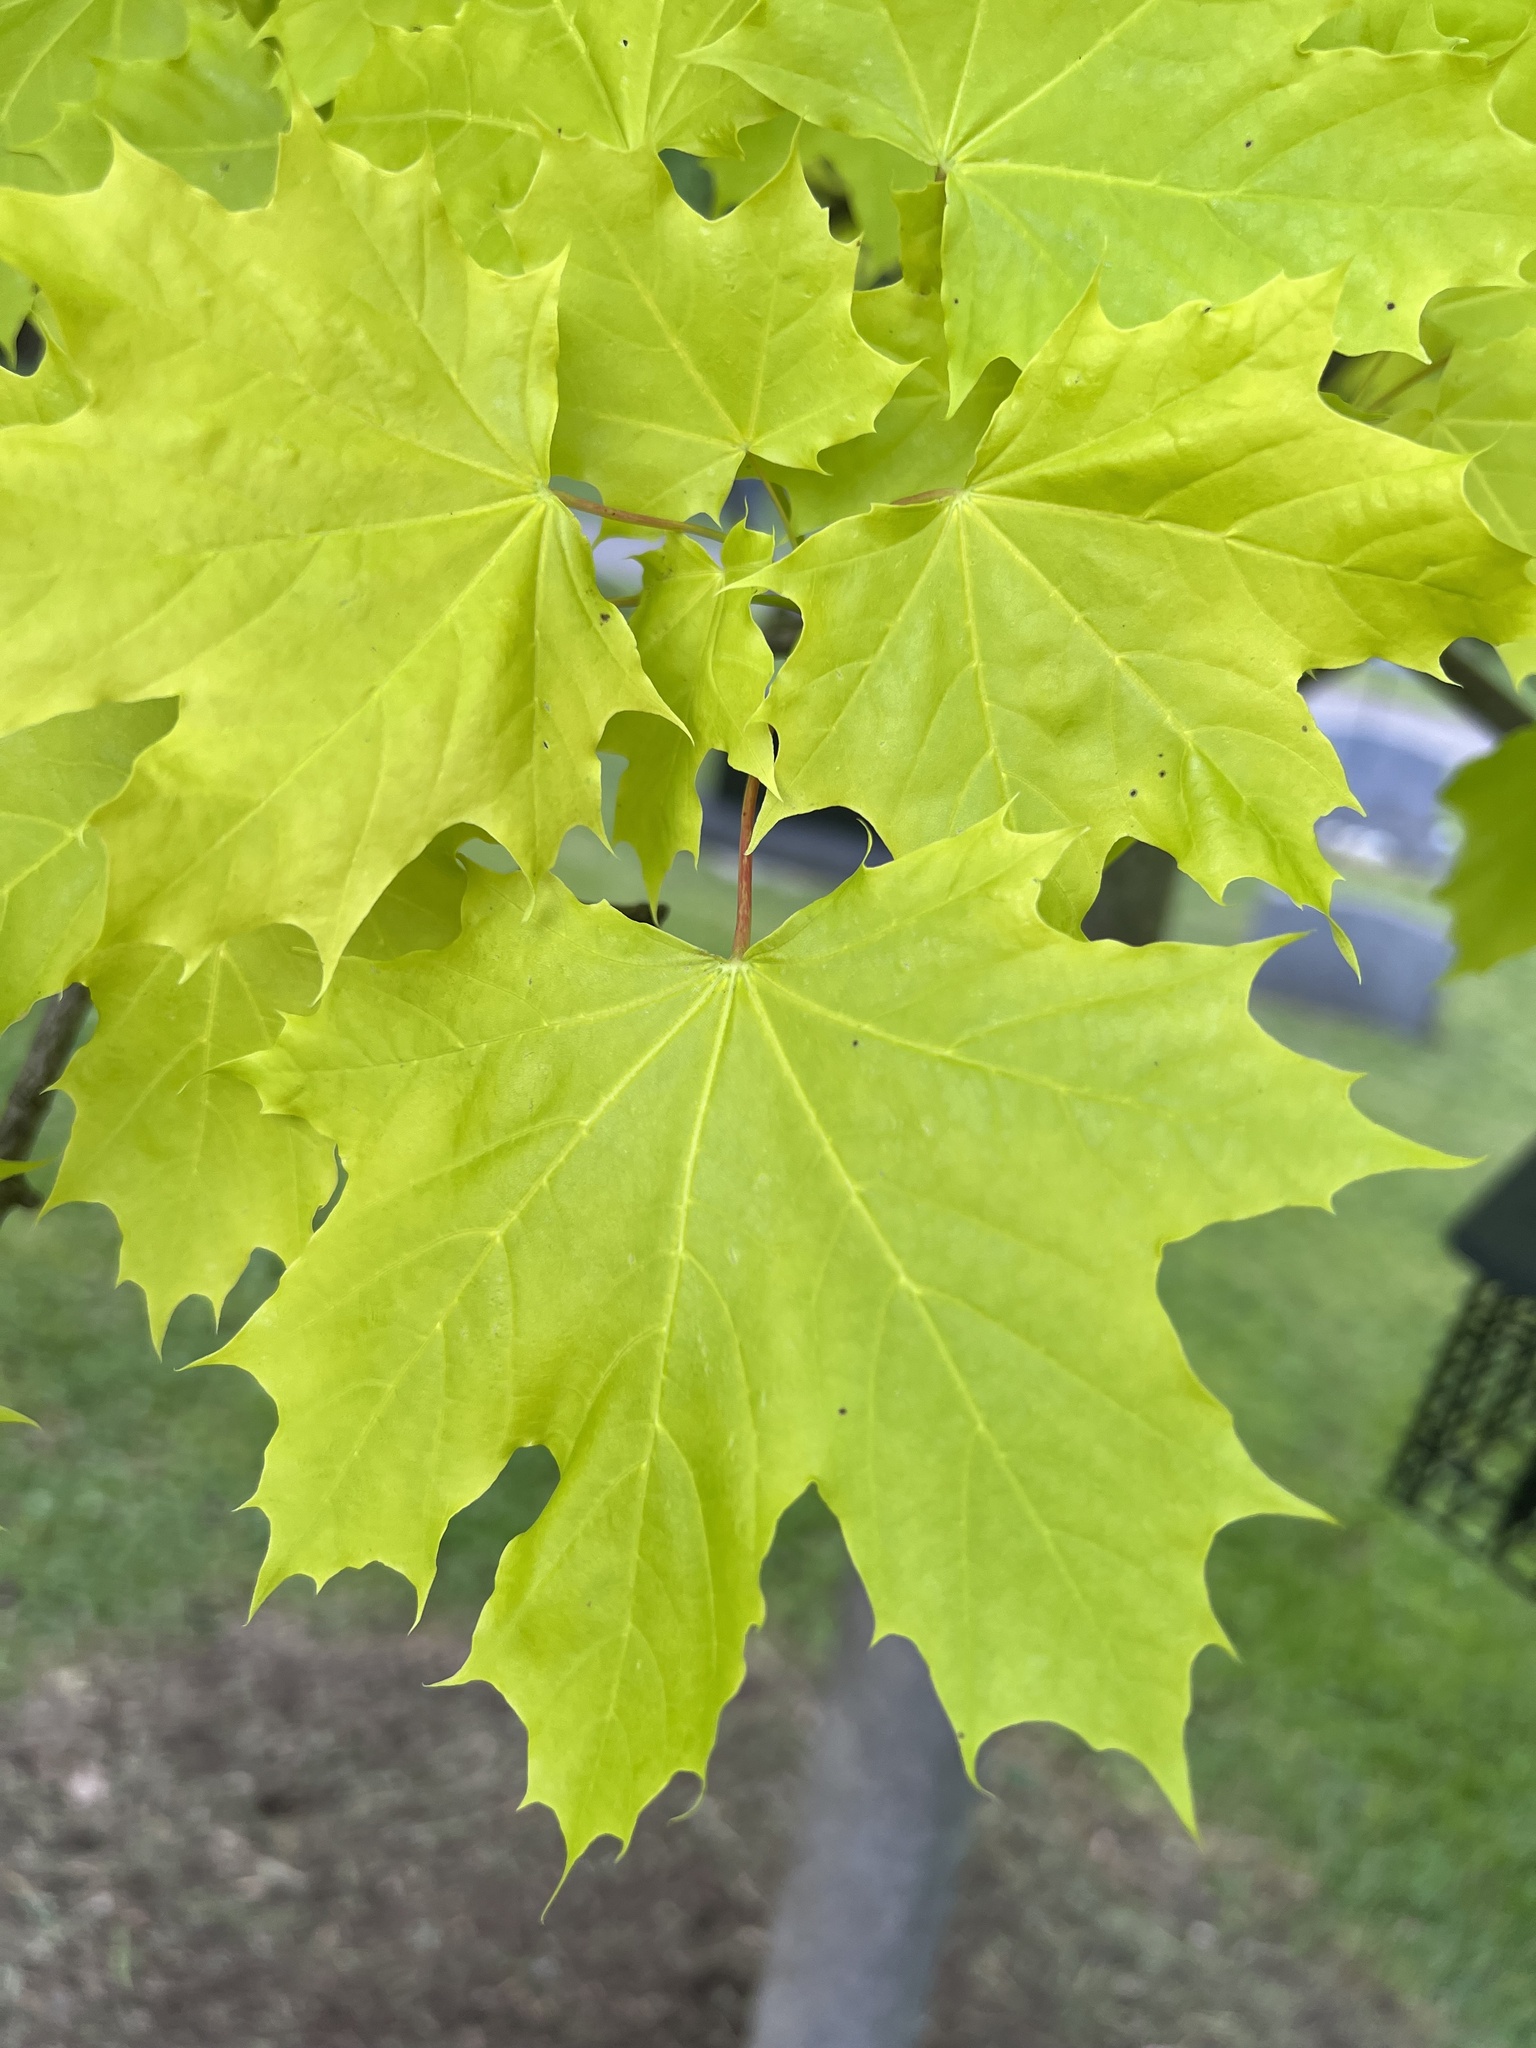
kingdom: Plantae
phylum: Tracheophyta
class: Magnoliopsida
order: Sapindales
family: Sapindaceae
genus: Acer
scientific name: Acer platanoides
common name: Norway maple
